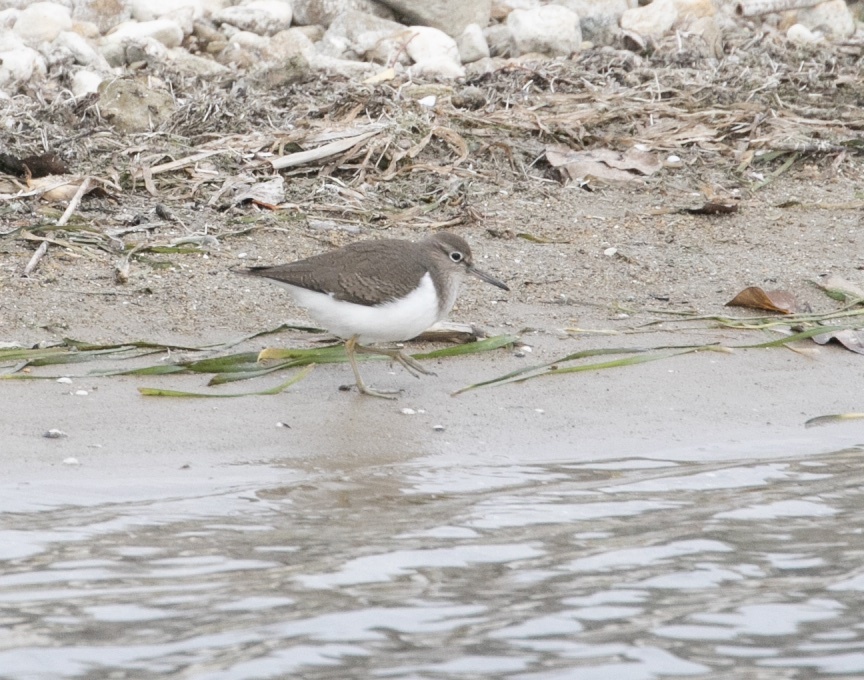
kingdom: Animalia
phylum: Chordata
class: Aves
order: Charadriiformes
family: Scolopacidae
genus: Actitis
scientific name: Actitis hypoleucos
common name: Common sandpiper
